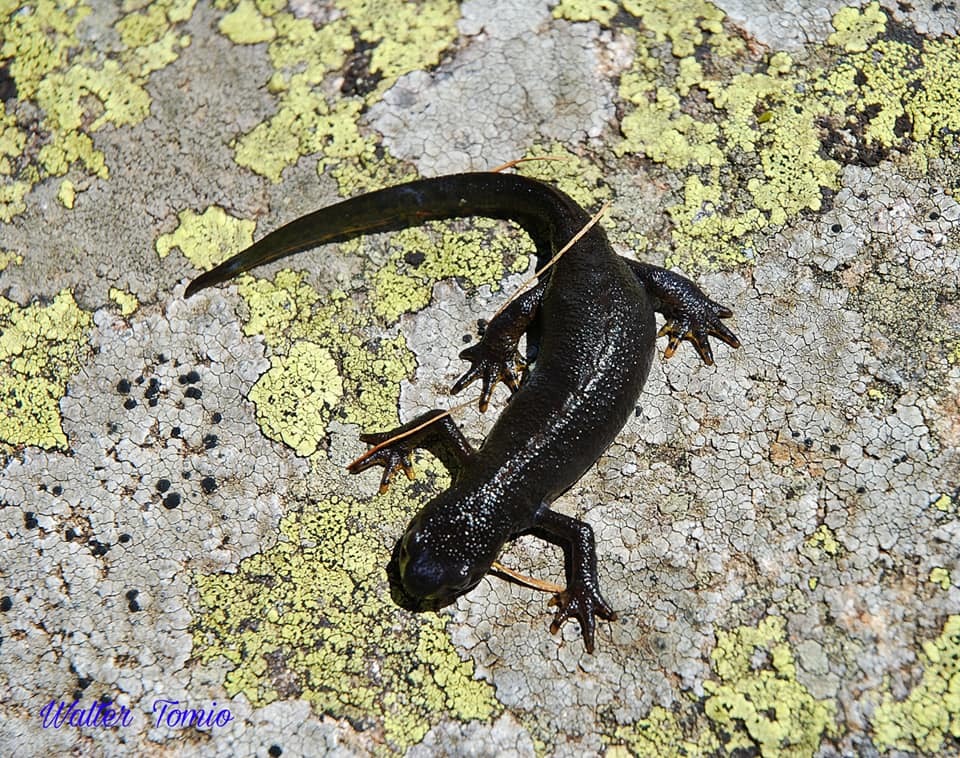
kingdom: Animalia
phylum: Chordata
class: Amphibia
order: Caudata
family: Salamandridae
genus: Ichthyosaura
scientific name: Ichthyosaura alpestris
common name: Alpine newt
